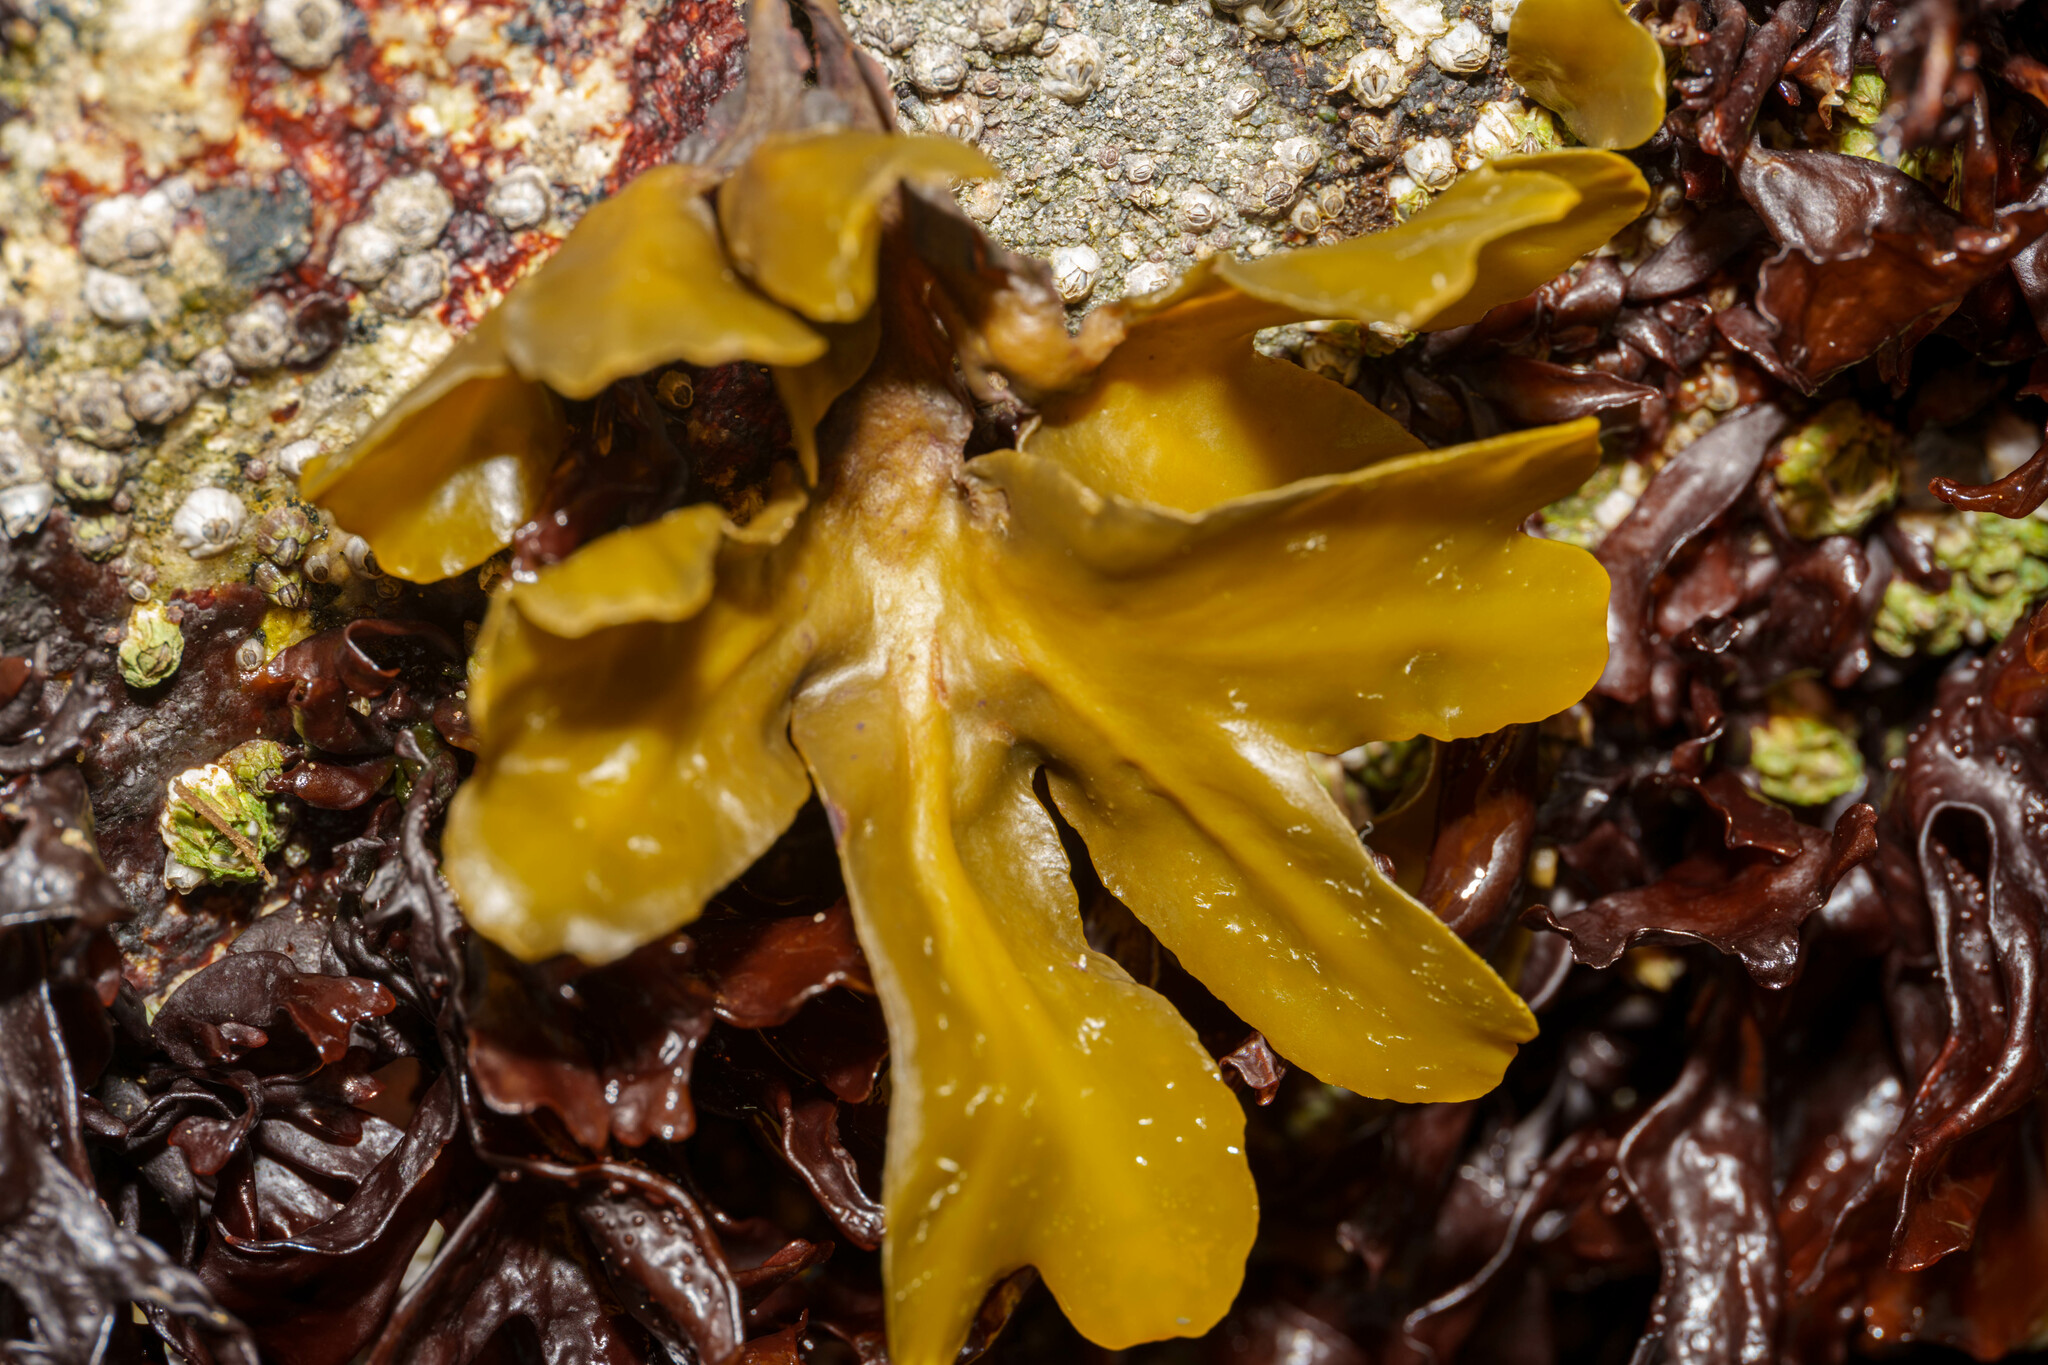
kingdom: Chromista
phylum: Ochrophyta
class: Phaeophyceae
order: Fucales
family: Fucaceae
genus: Fucus
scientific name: Fucus distichus
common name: Rockweed
